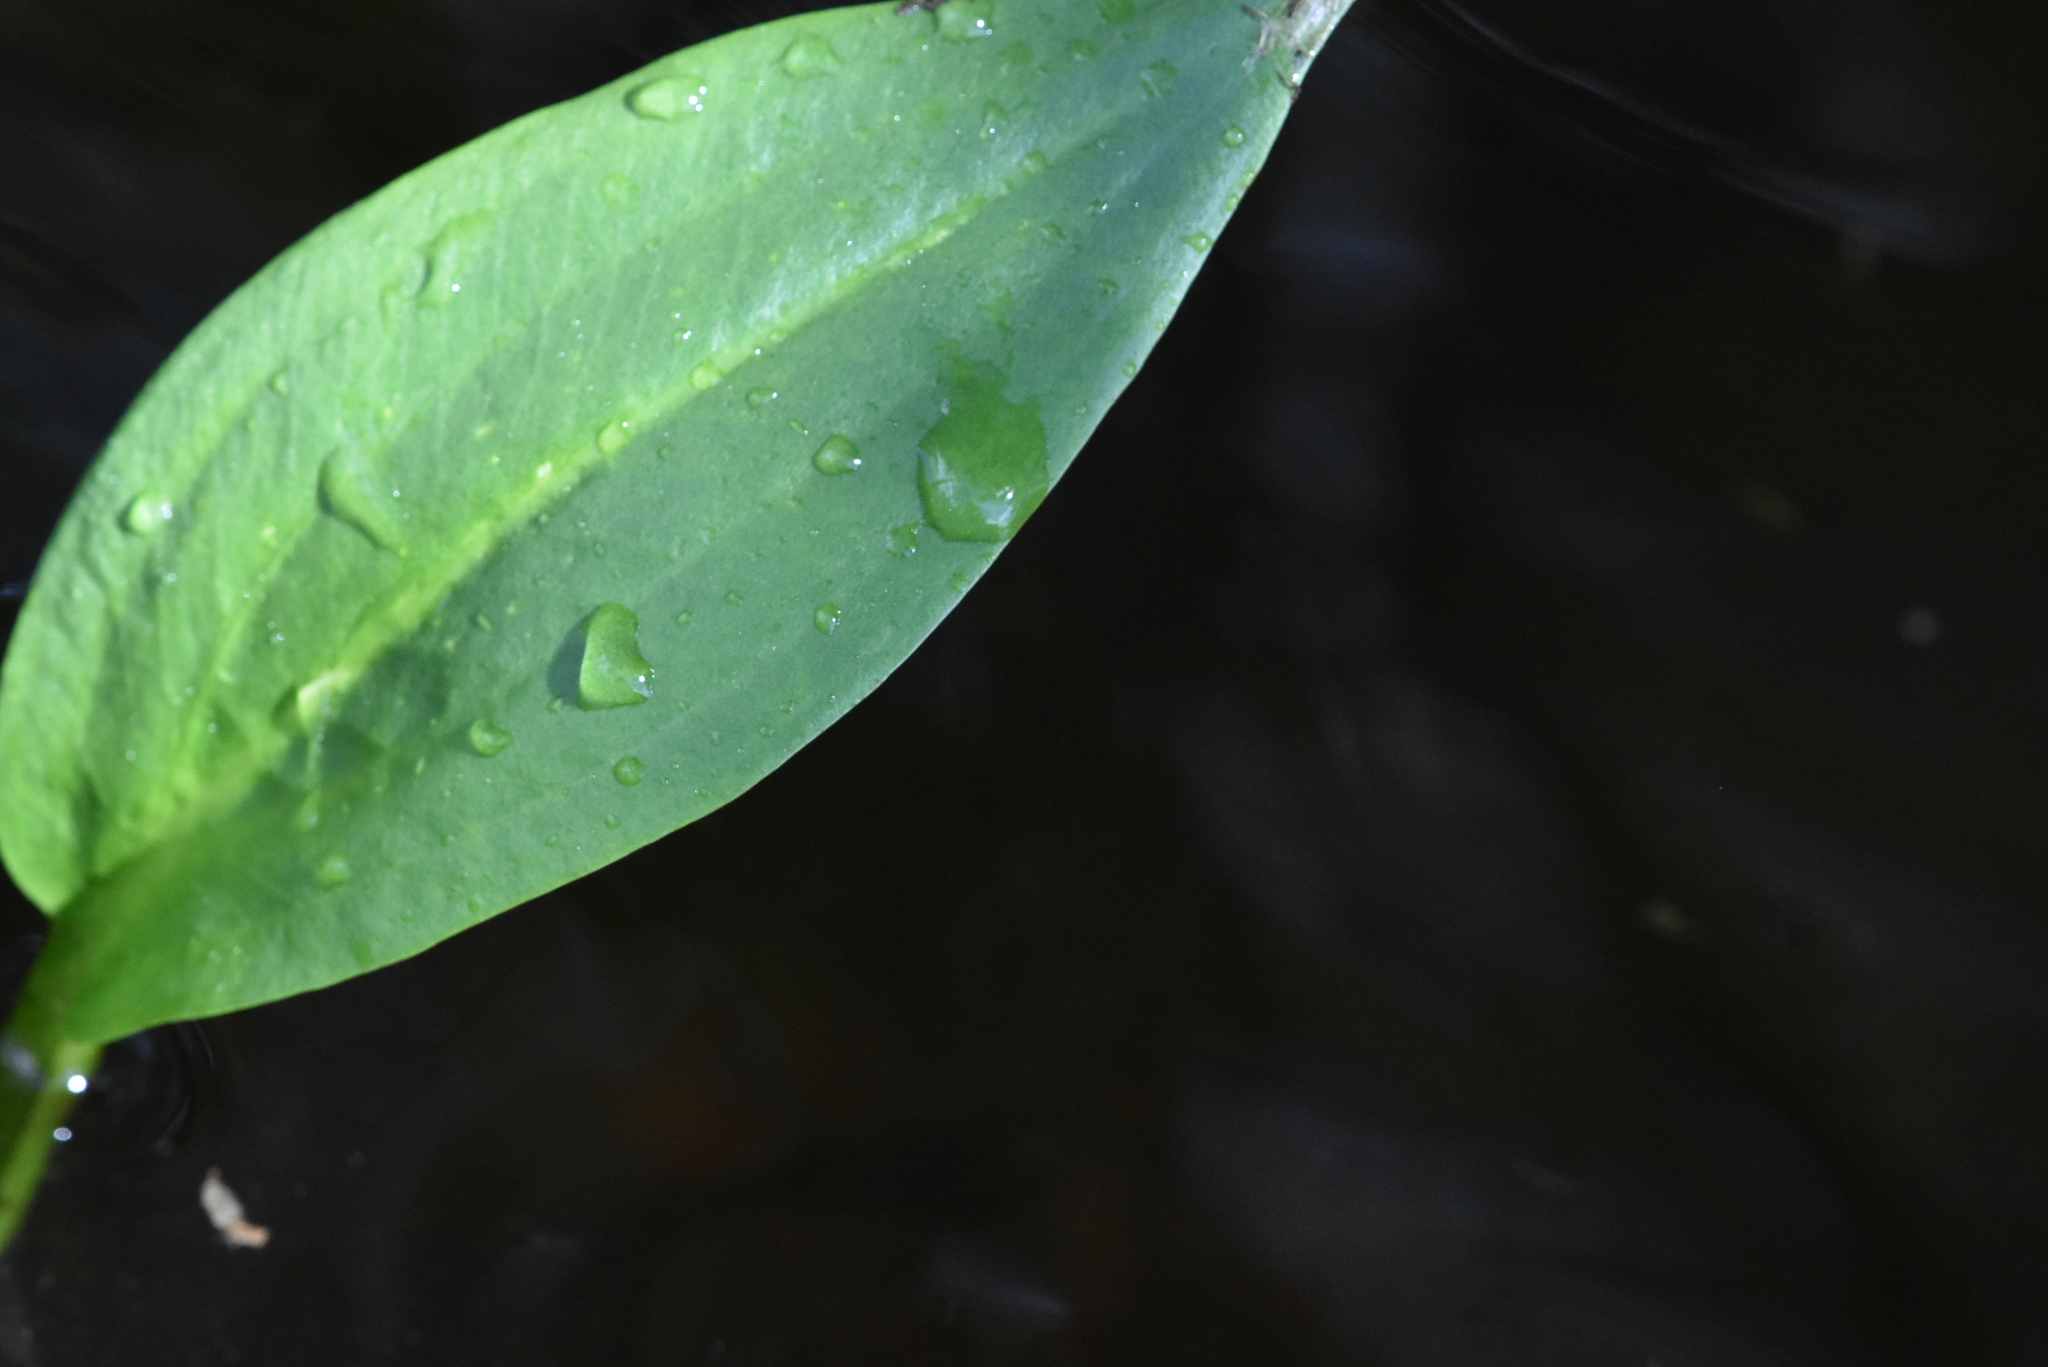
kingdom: Plantae
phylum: Tracheophyta
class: Liliopsida
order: Alismatales
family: Alismataceae
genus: Alisma
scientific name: Alisma plantago-aquatica
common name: Water-plantain
